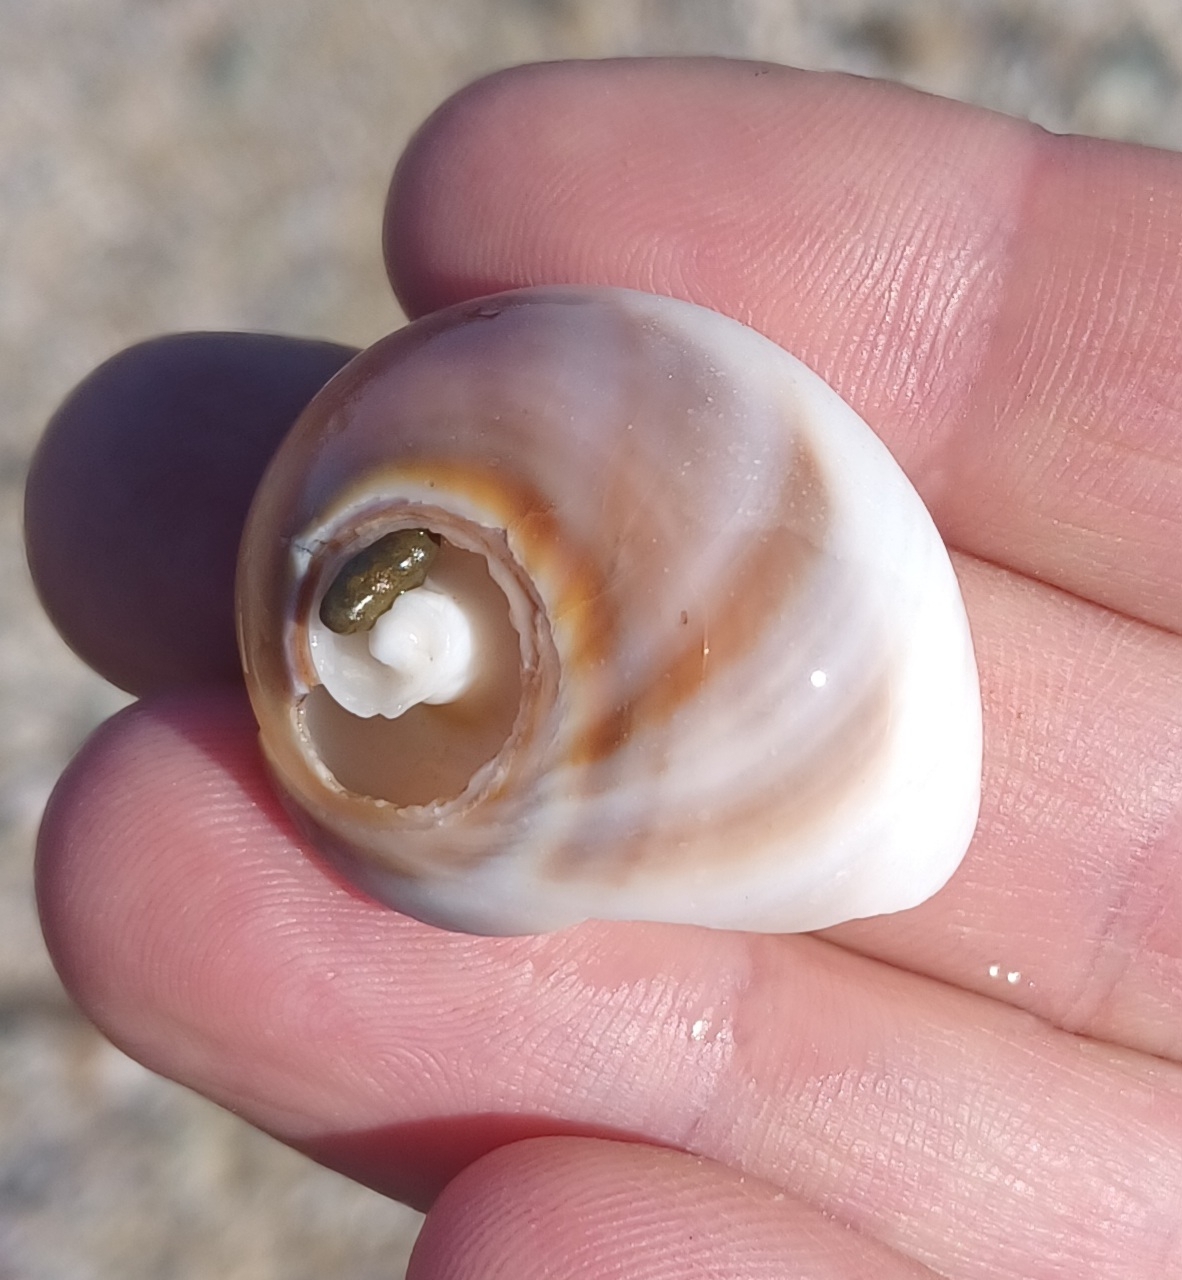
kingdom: Animalia
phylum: Mollusca
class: Gastropoda
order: Littorinimorpha
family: Naticidae
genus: Conuber
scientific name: Conuber incei
